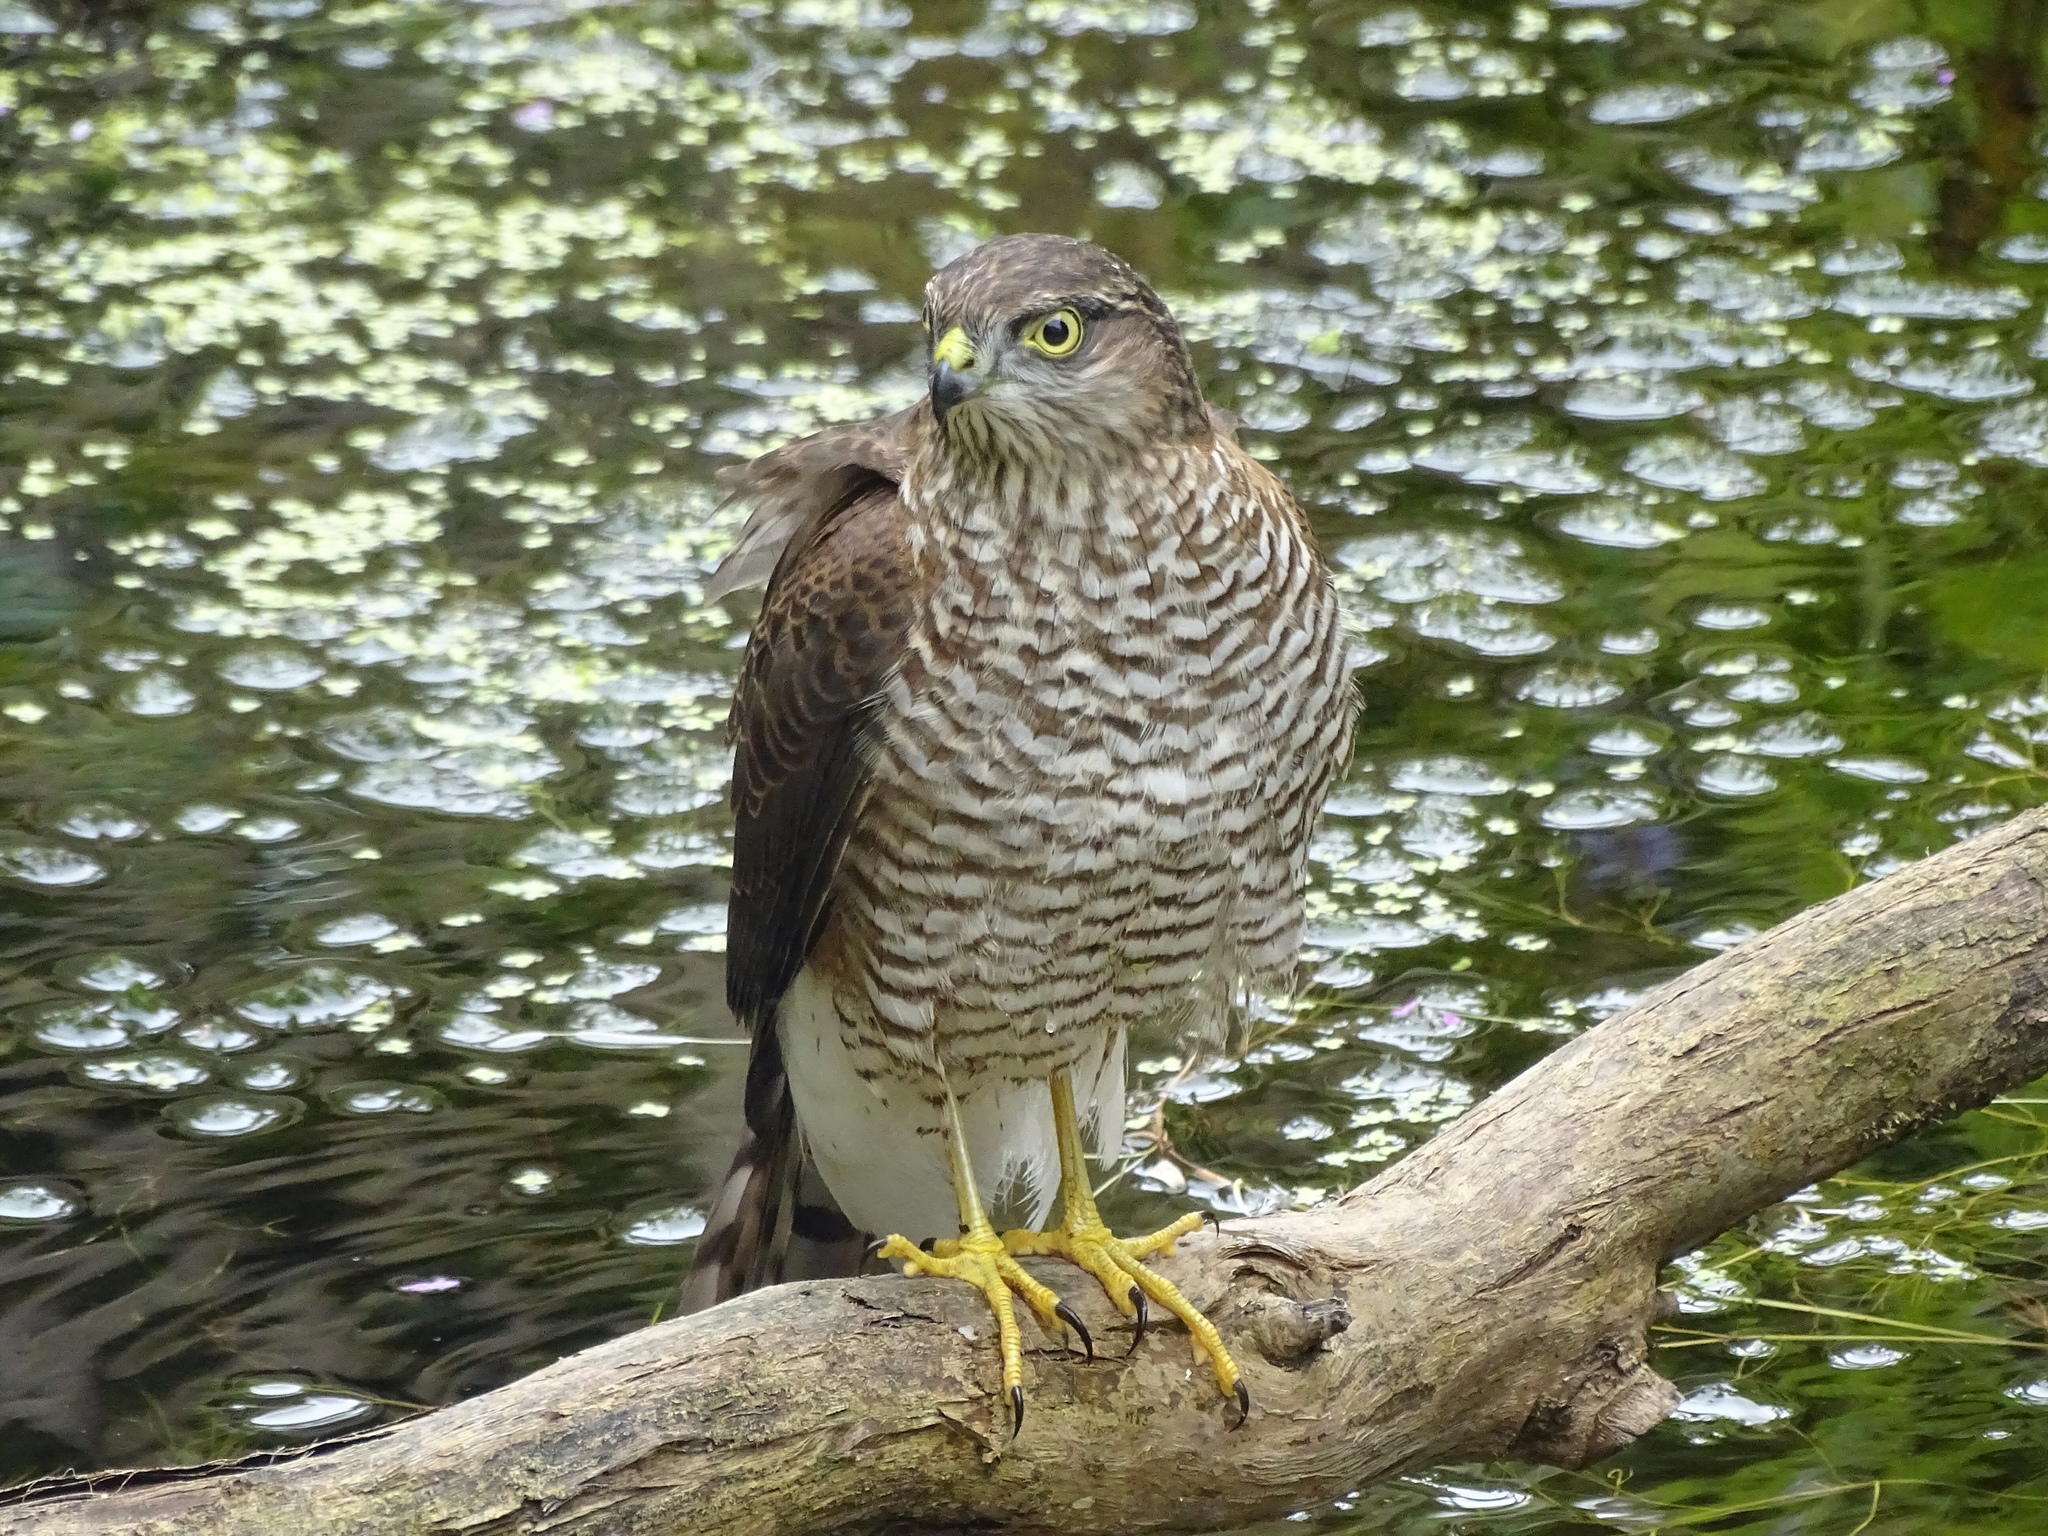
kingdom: Animalia
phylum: Chordata
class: Aves
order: Accipitriformes
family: Accipitridae
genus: Accipiter
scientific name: Accipiter nisus
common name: Eurasian sparrowhawk
